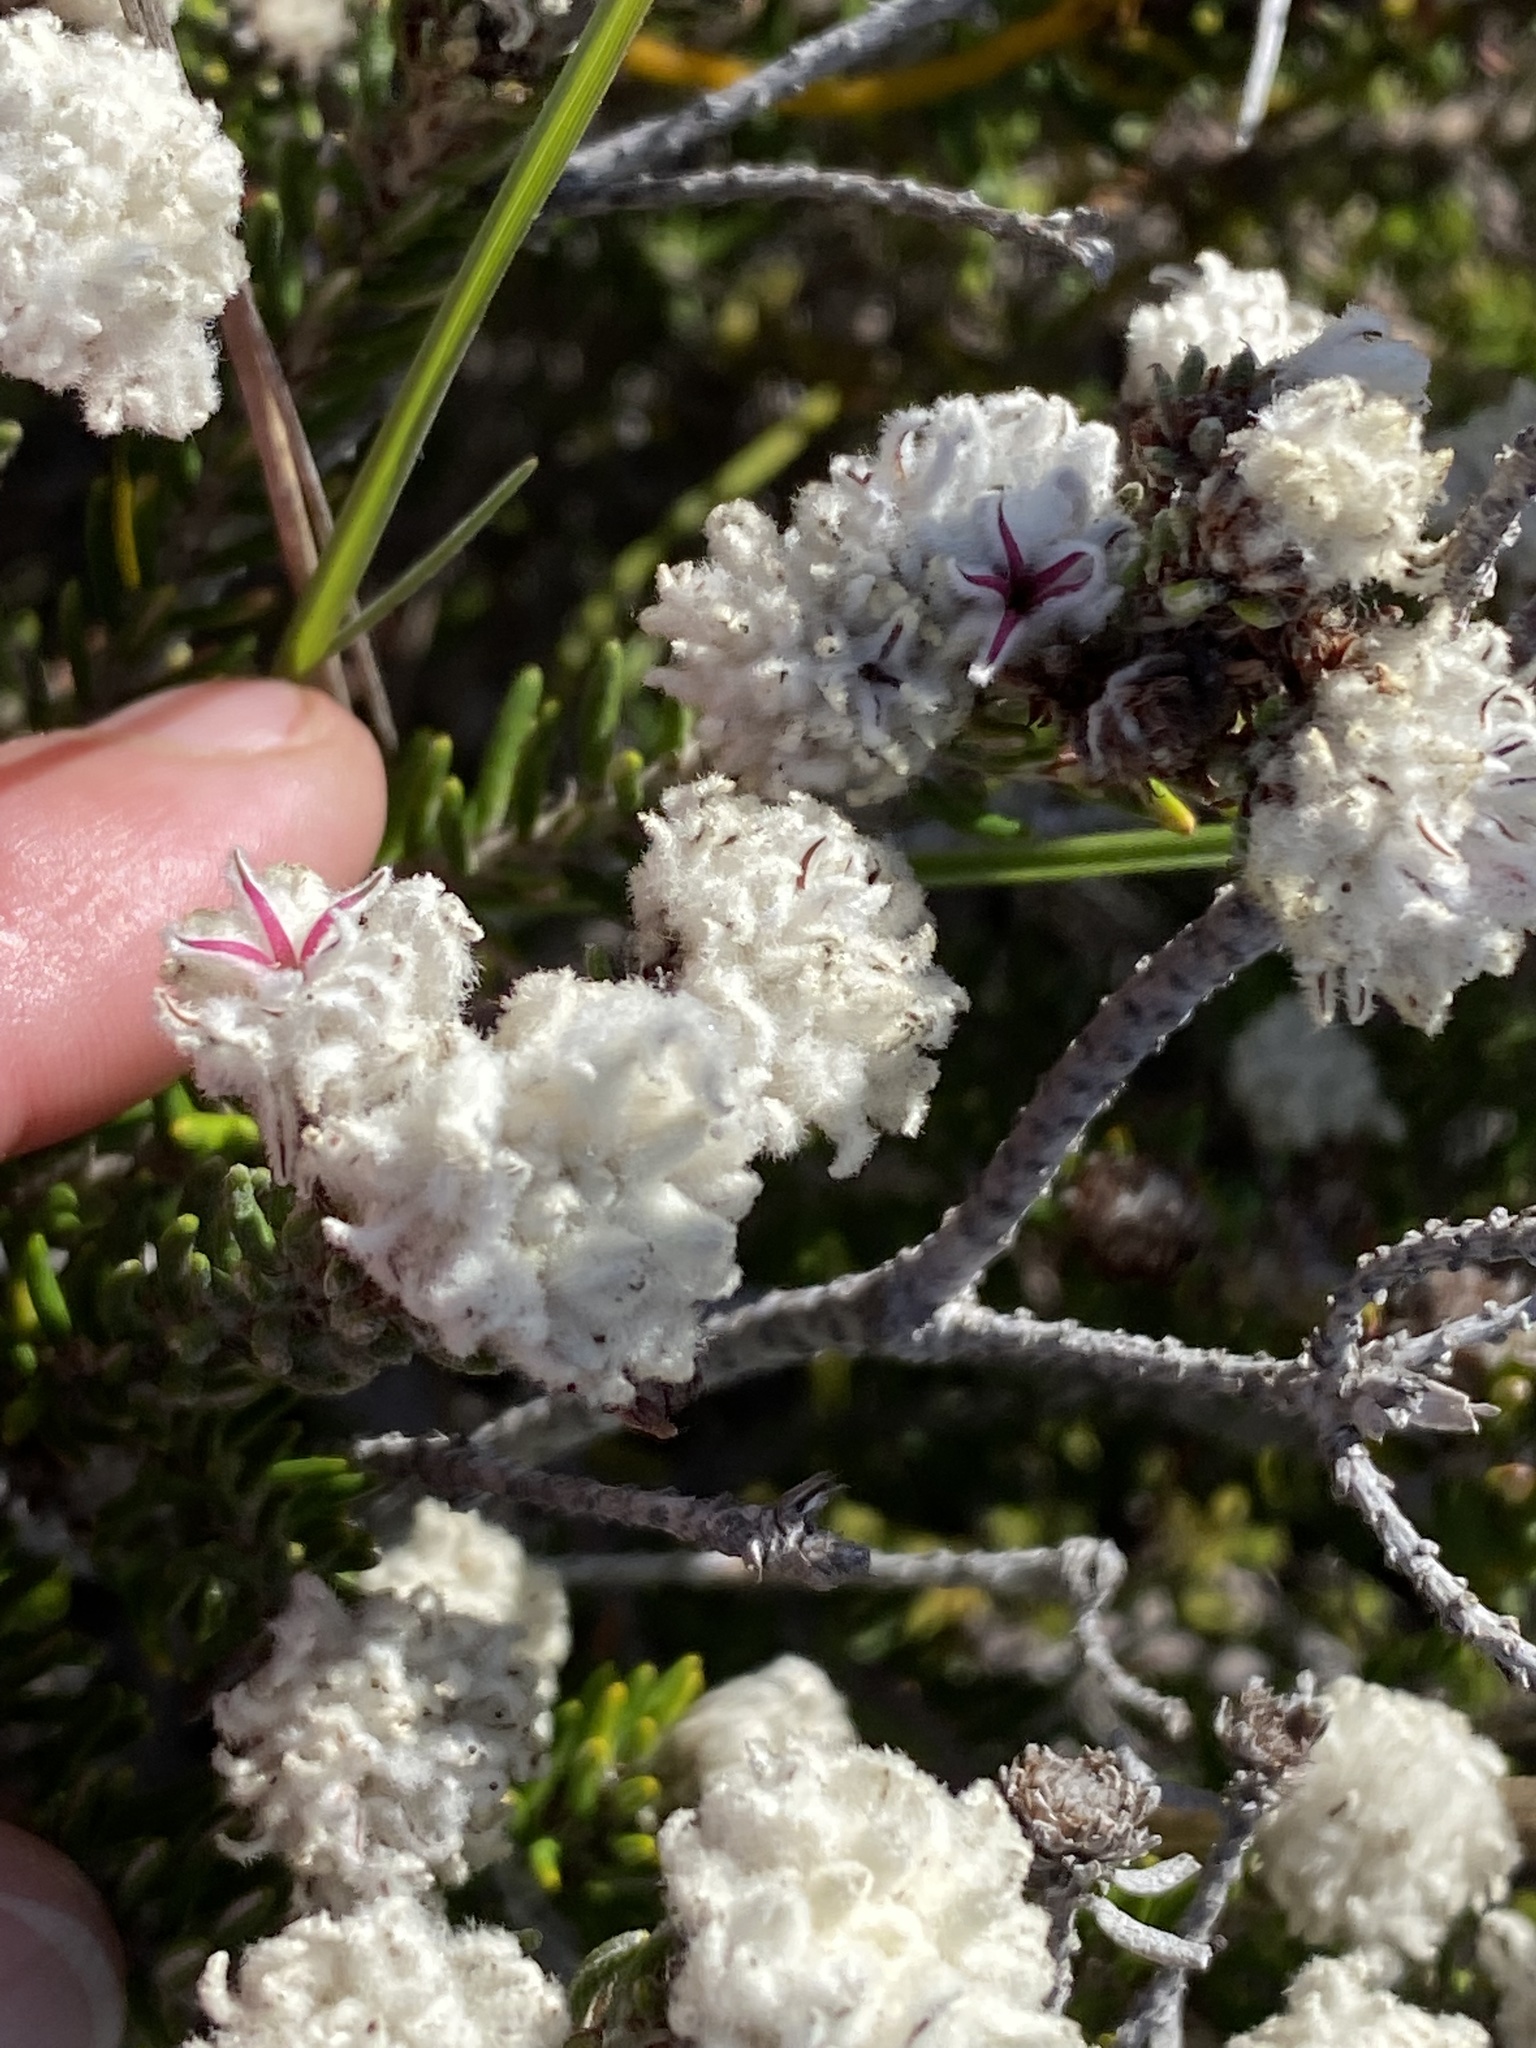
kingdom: Plantae
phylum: Tracheophyta
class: Magnoliopsida
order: Rosales
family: Rhamnaceae
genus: Trichocephalus
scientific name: Trichocephalus stipularis
